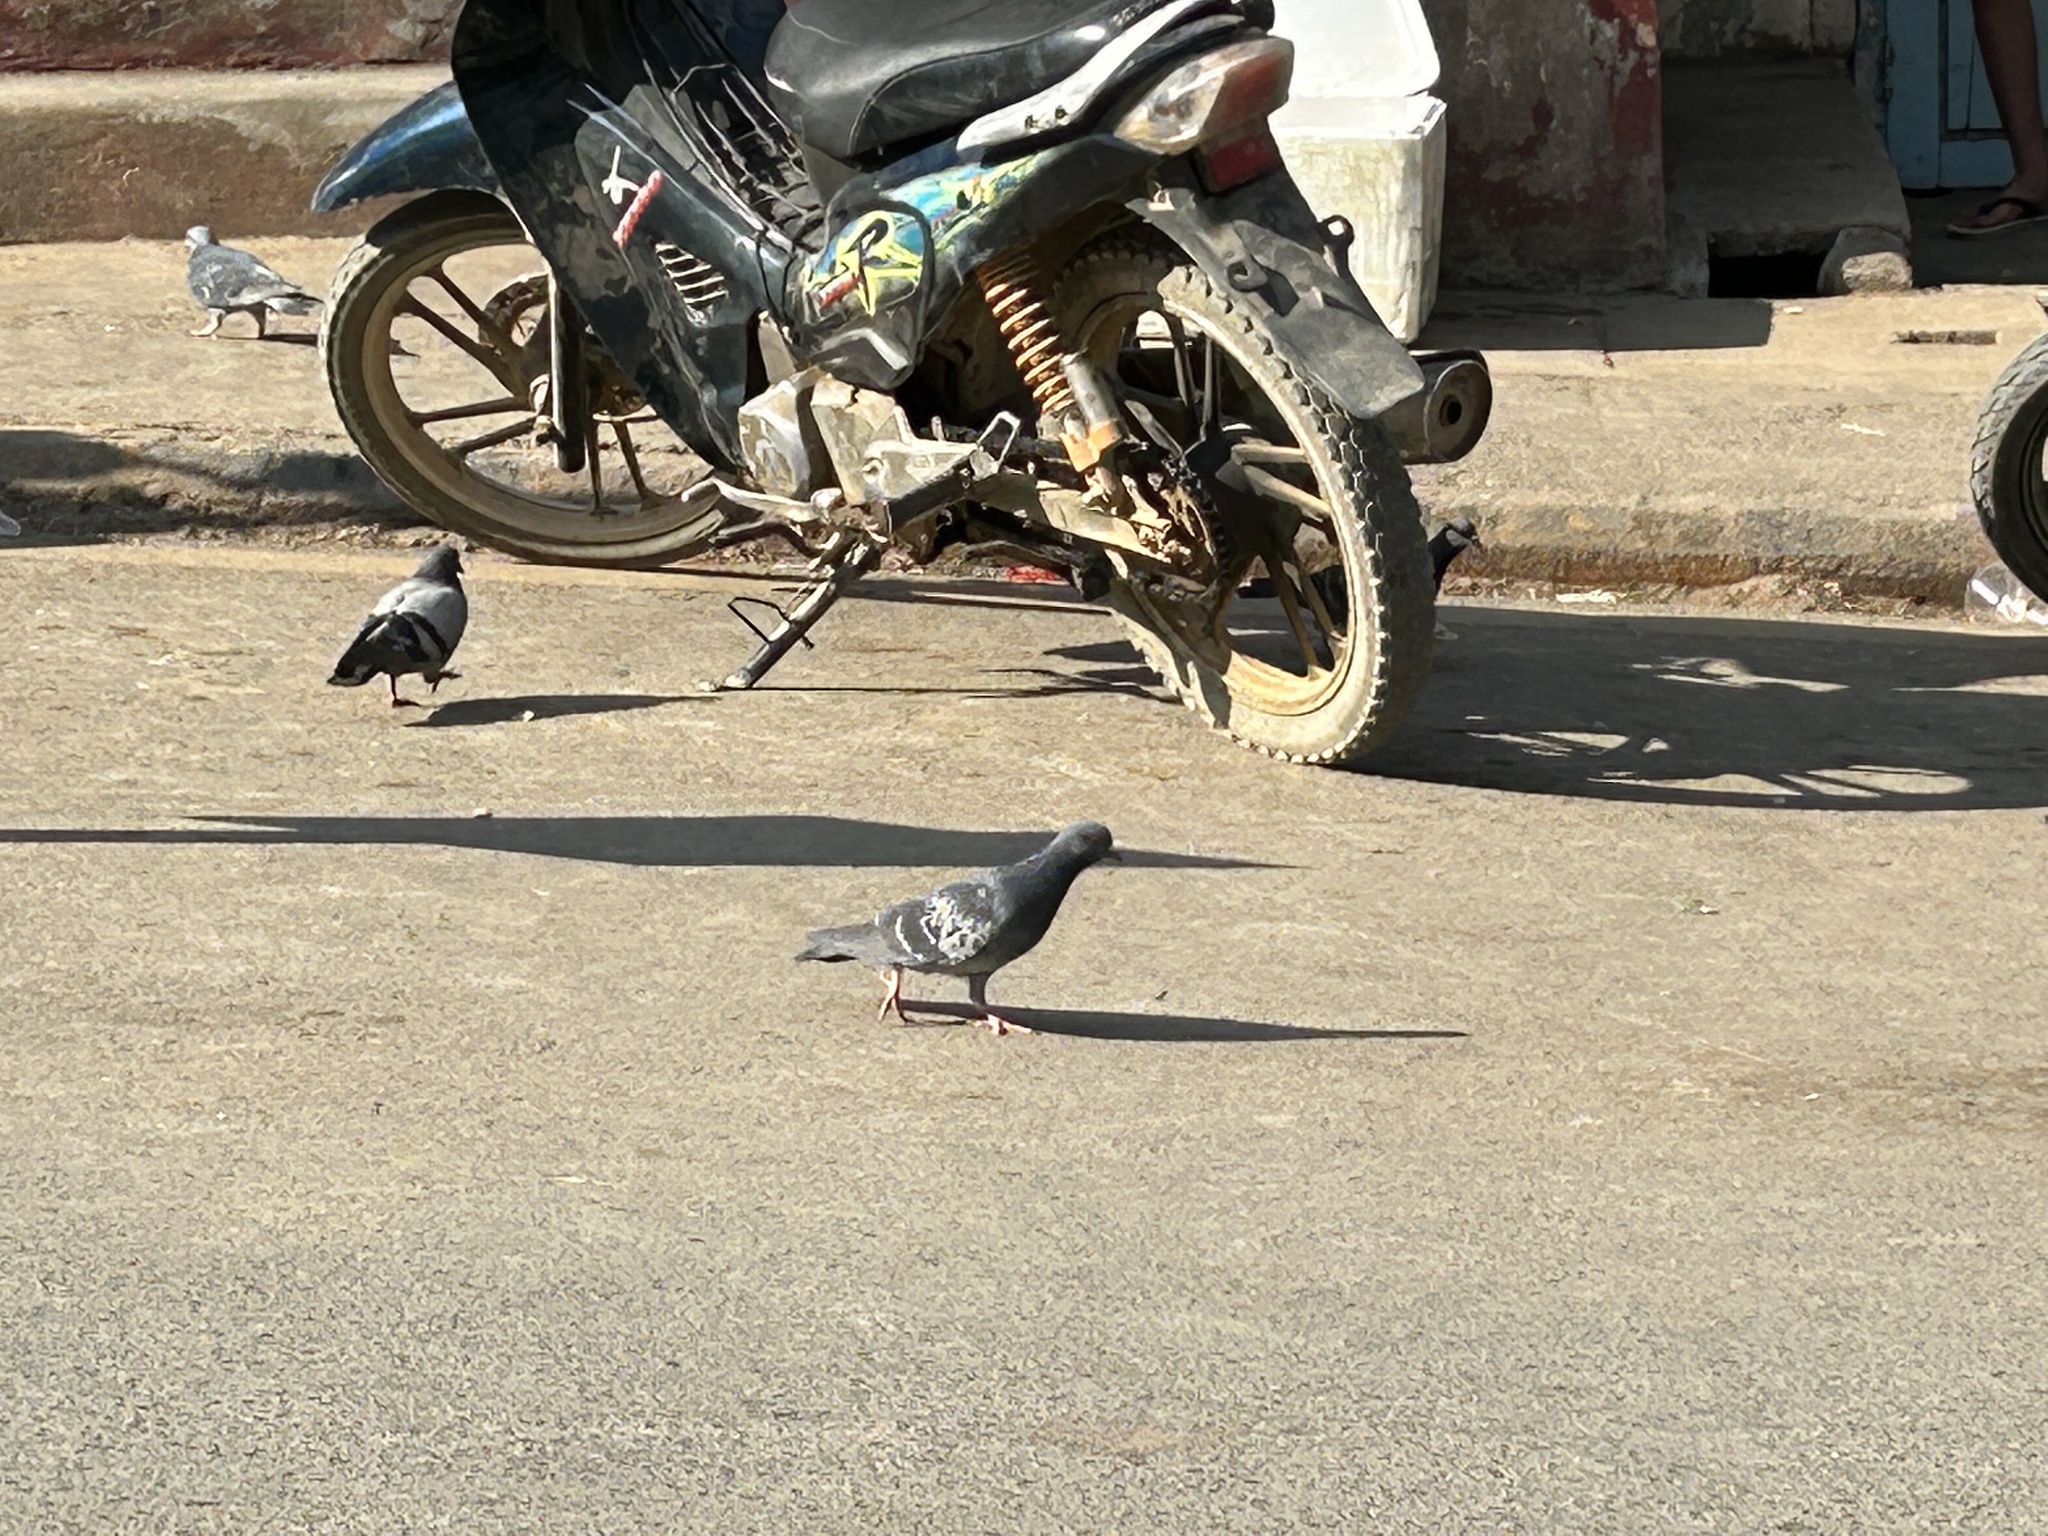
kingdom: Animalia
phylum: Chordata
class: Aves
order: Columbiformes
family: Columbidae
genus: Columba
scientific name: Columba livia
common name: Rock pigeon
